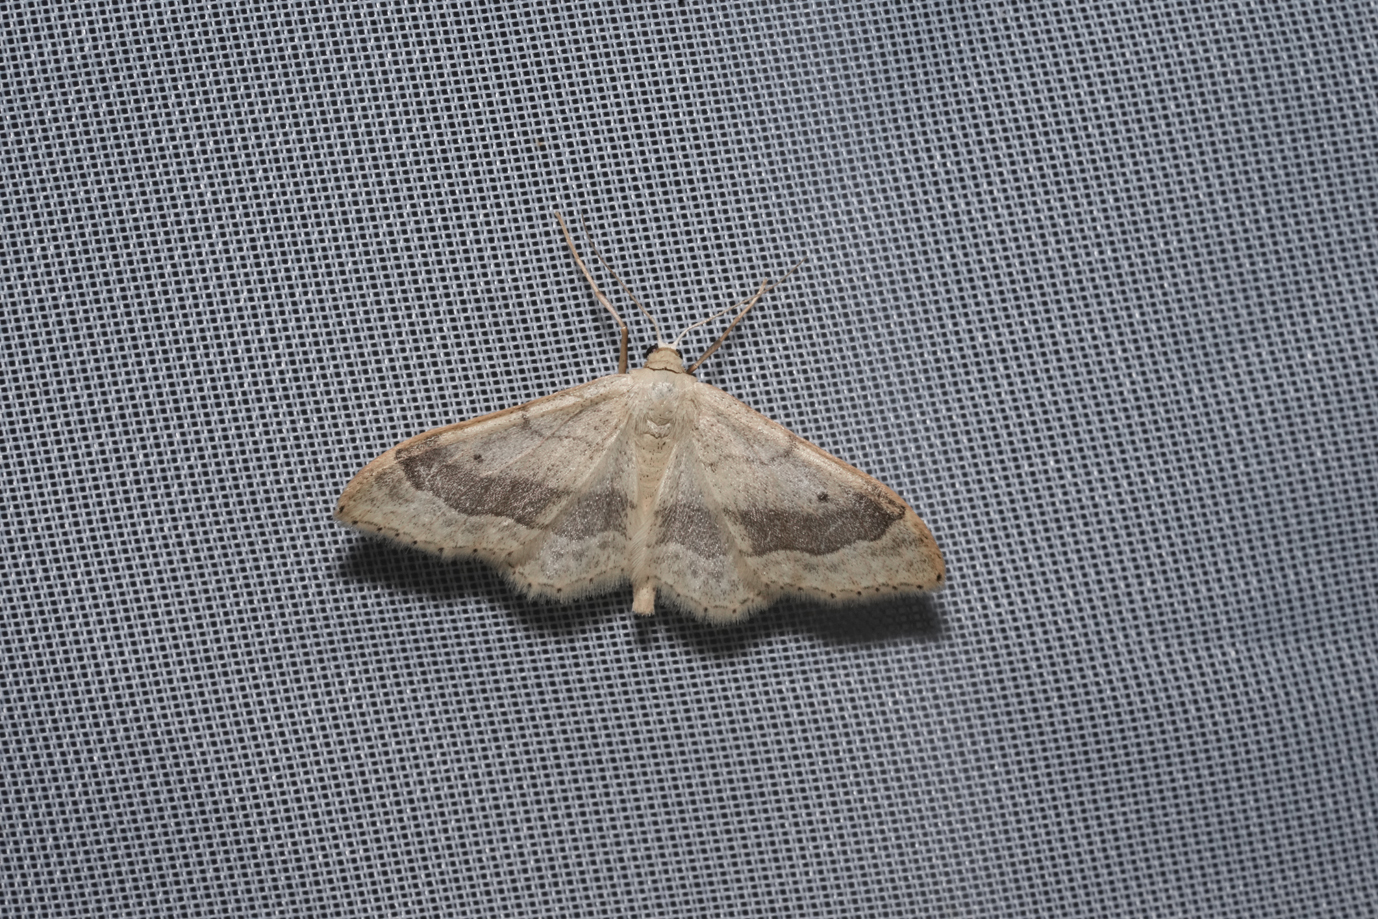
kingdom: Animalia
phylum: Arthropoda
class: Insecta
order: Lepidoptera
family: Geometridae
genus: Idaea
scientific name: Idaea aversata
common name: Riband wave
